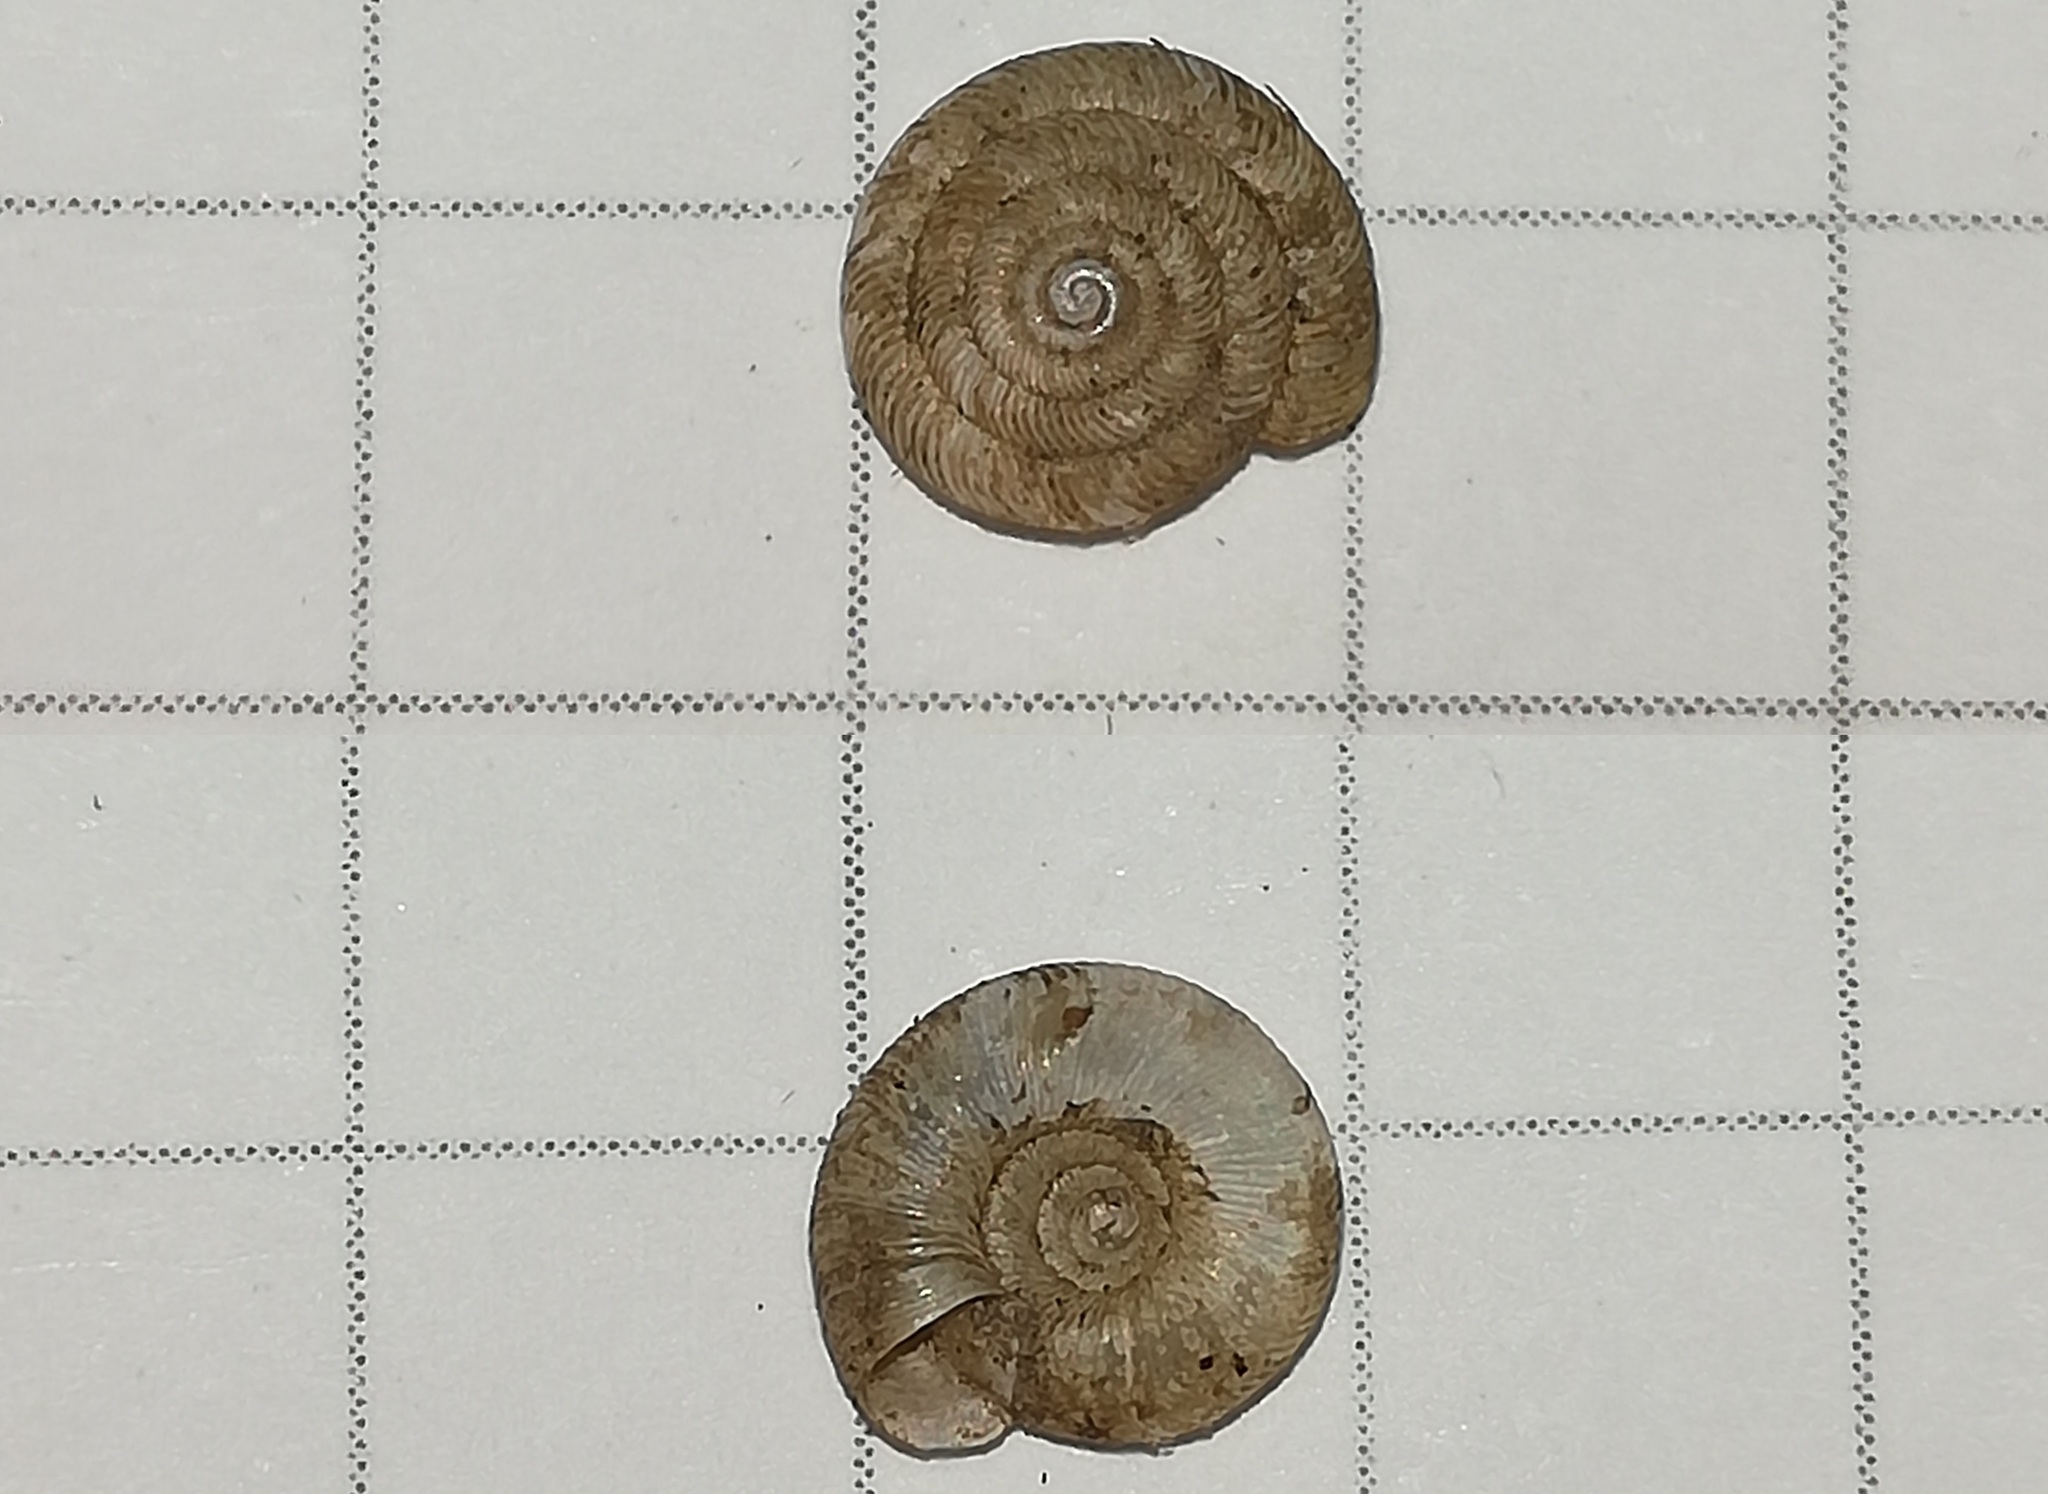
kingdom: Animalia
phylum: Mollusca
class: Gastropoda
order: Stylommatophora
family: Discidae
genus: Discus
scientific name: Discus rotundatus
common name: Rounded snail
